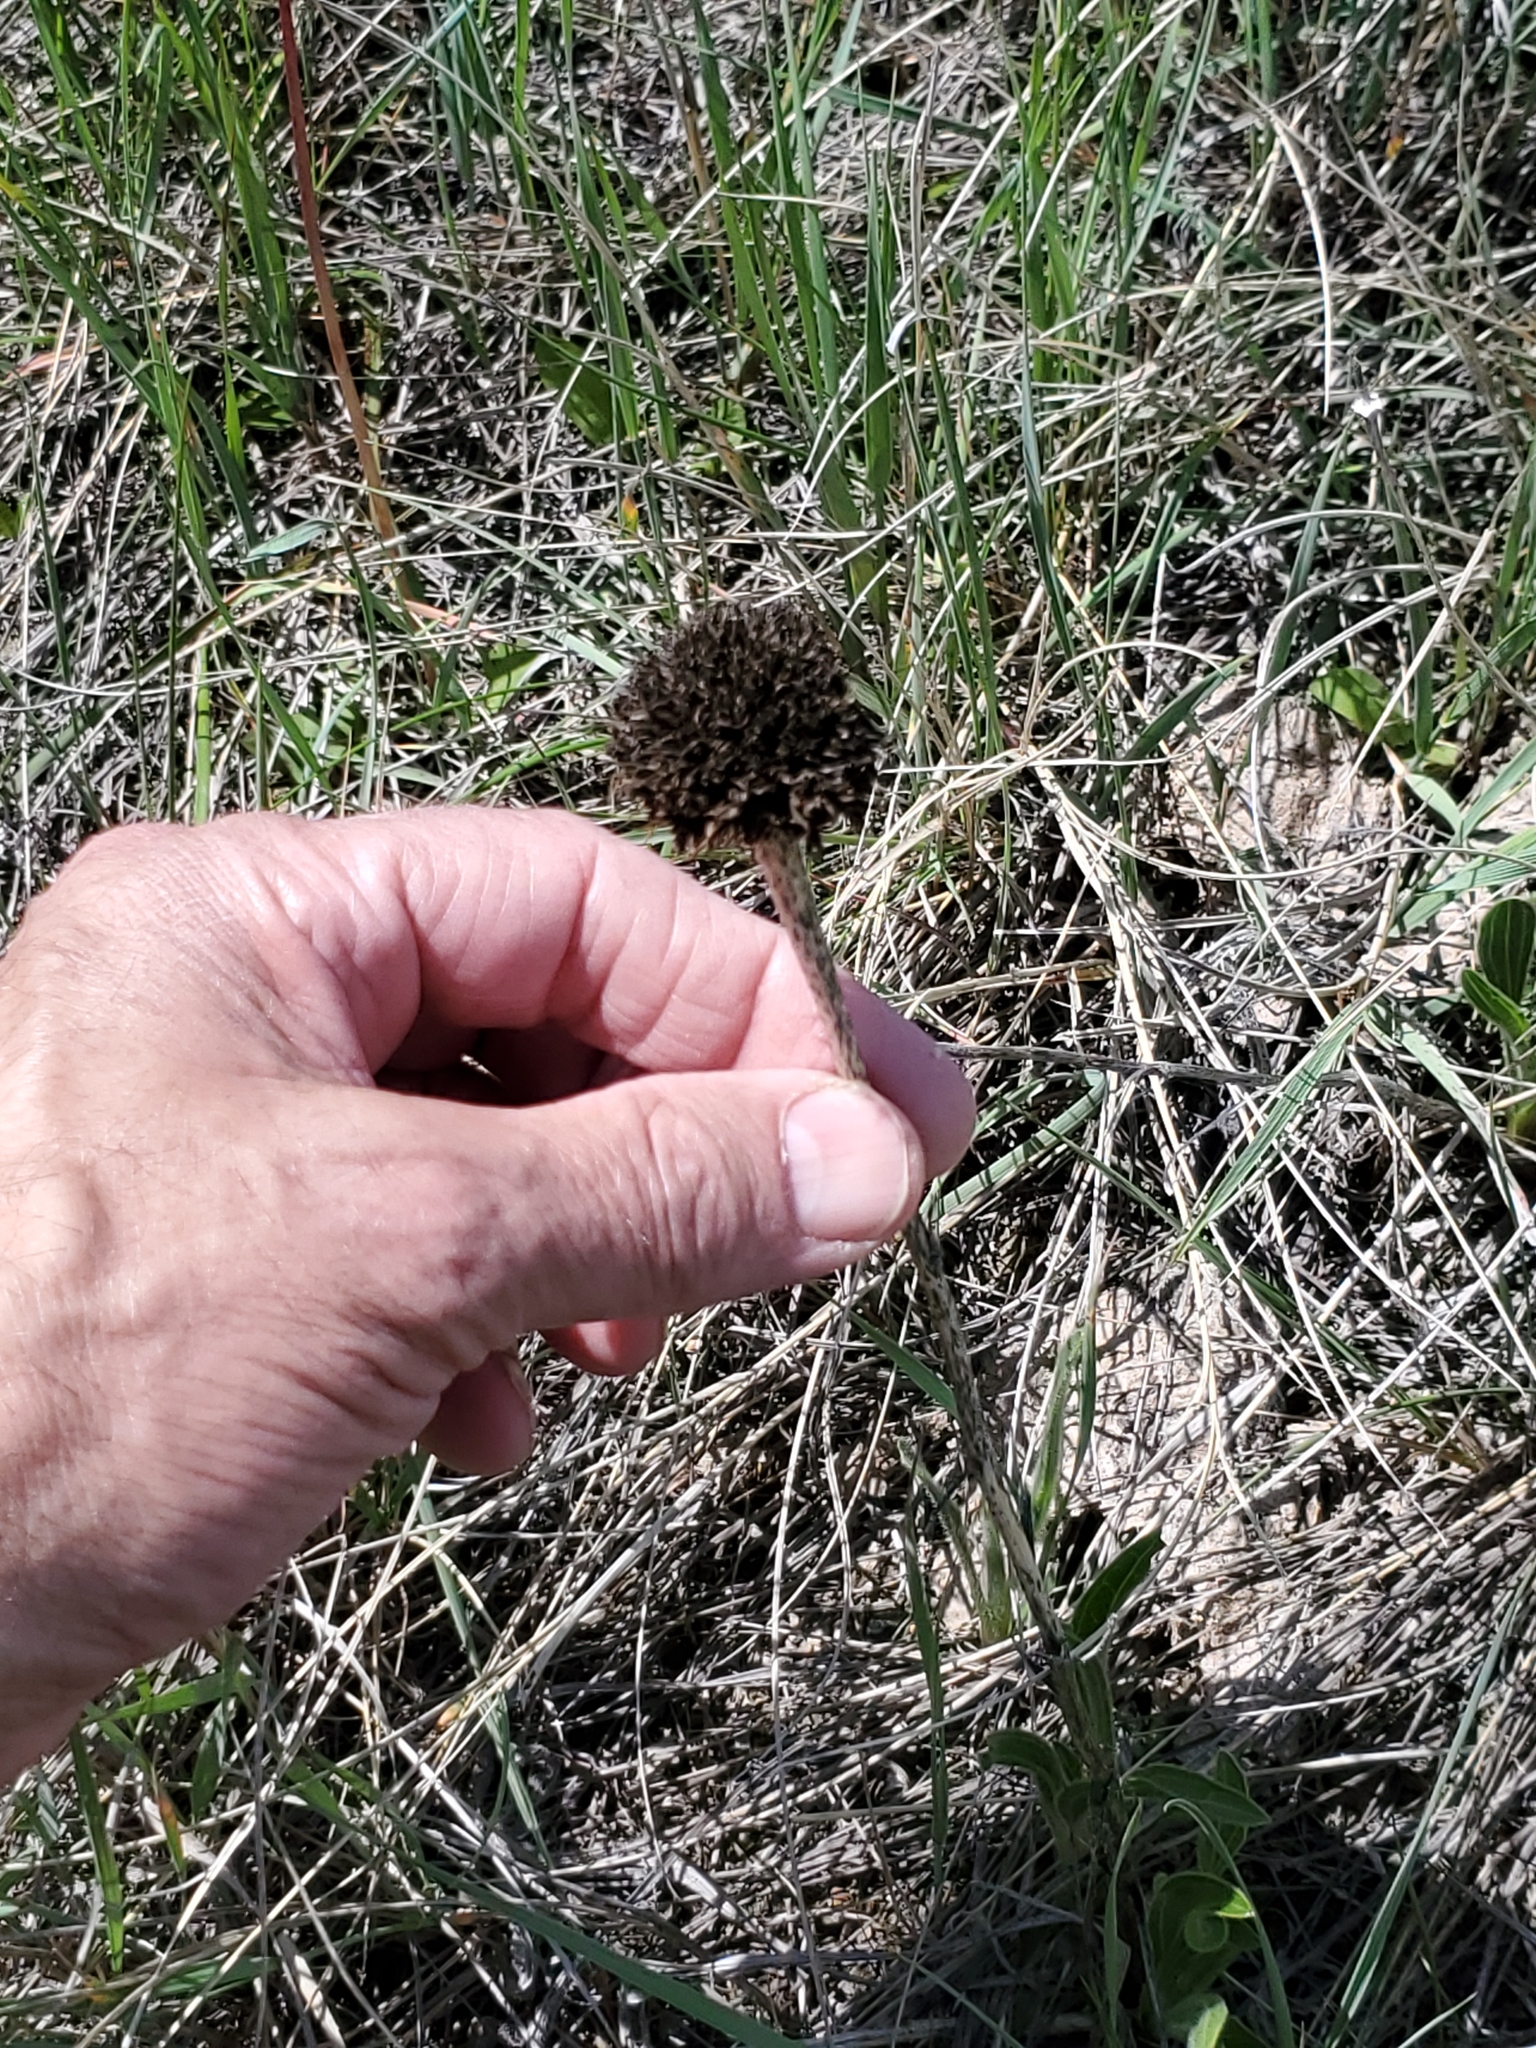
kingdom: Plantae
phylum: Tracheophyta
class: Magnoliopsida
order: Asterales
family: Asteraceae
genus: Echinacea
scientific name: Echinacea angustifolia
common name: Black-sampson echinacea
